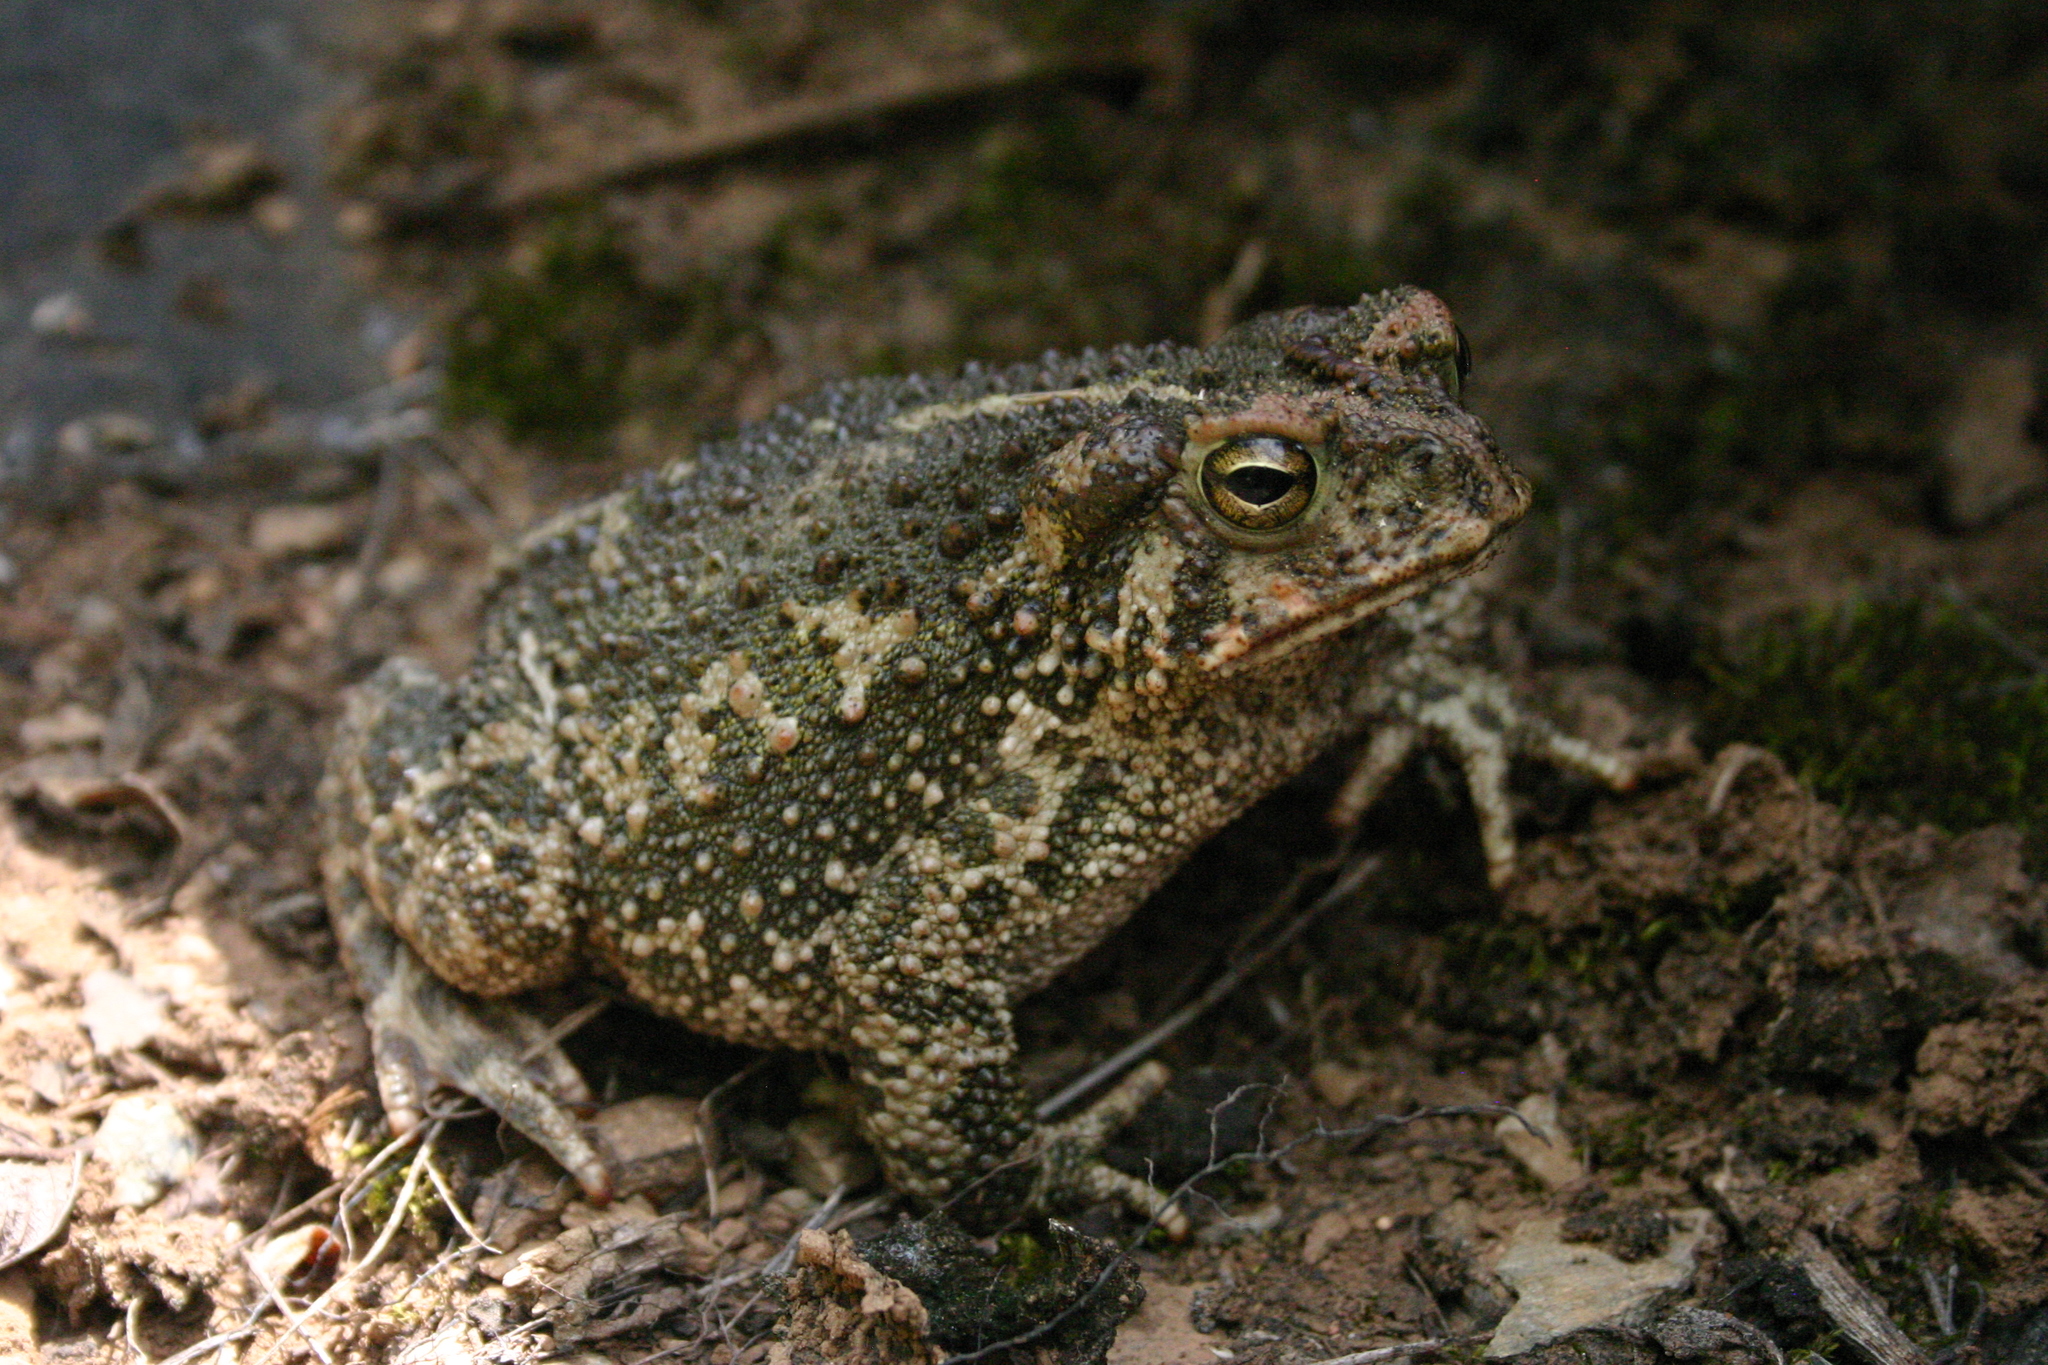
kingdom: Animalia
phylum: Chordata
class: Amphibia
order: Anura
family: Bufonidae
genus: Incilius
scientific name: Incilius occidentalis
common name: Pine toad
